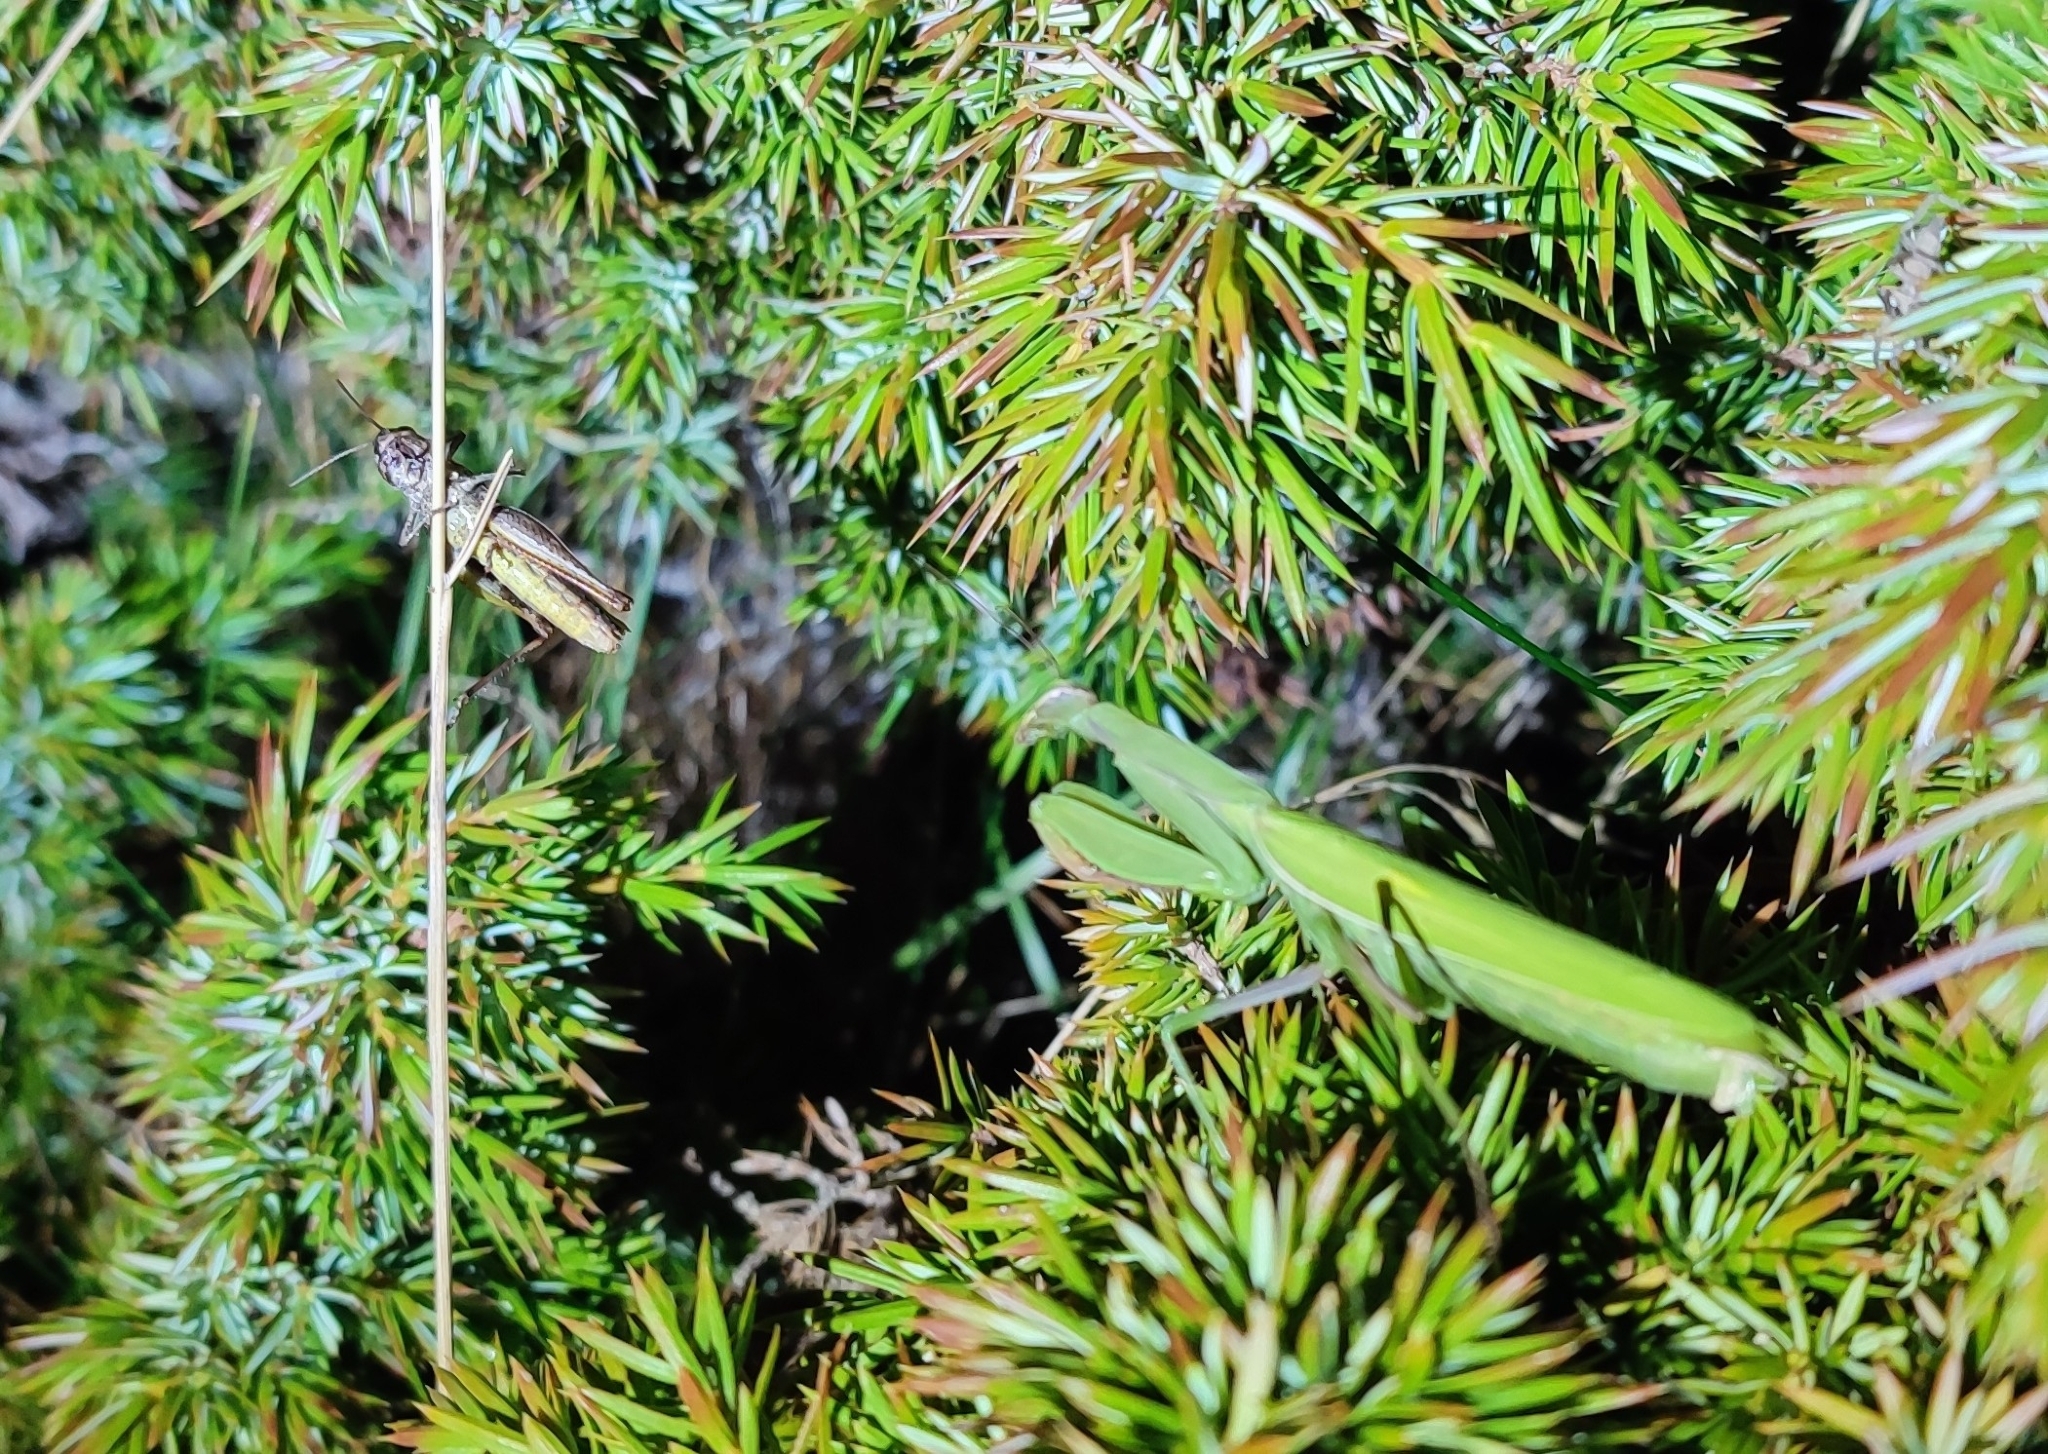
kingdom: Animalia
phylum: Arthropoda
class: Insecta
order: Mantodea
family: Mantidae
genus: Mantis
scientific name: Mantis religiosa
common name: Praying mantis
